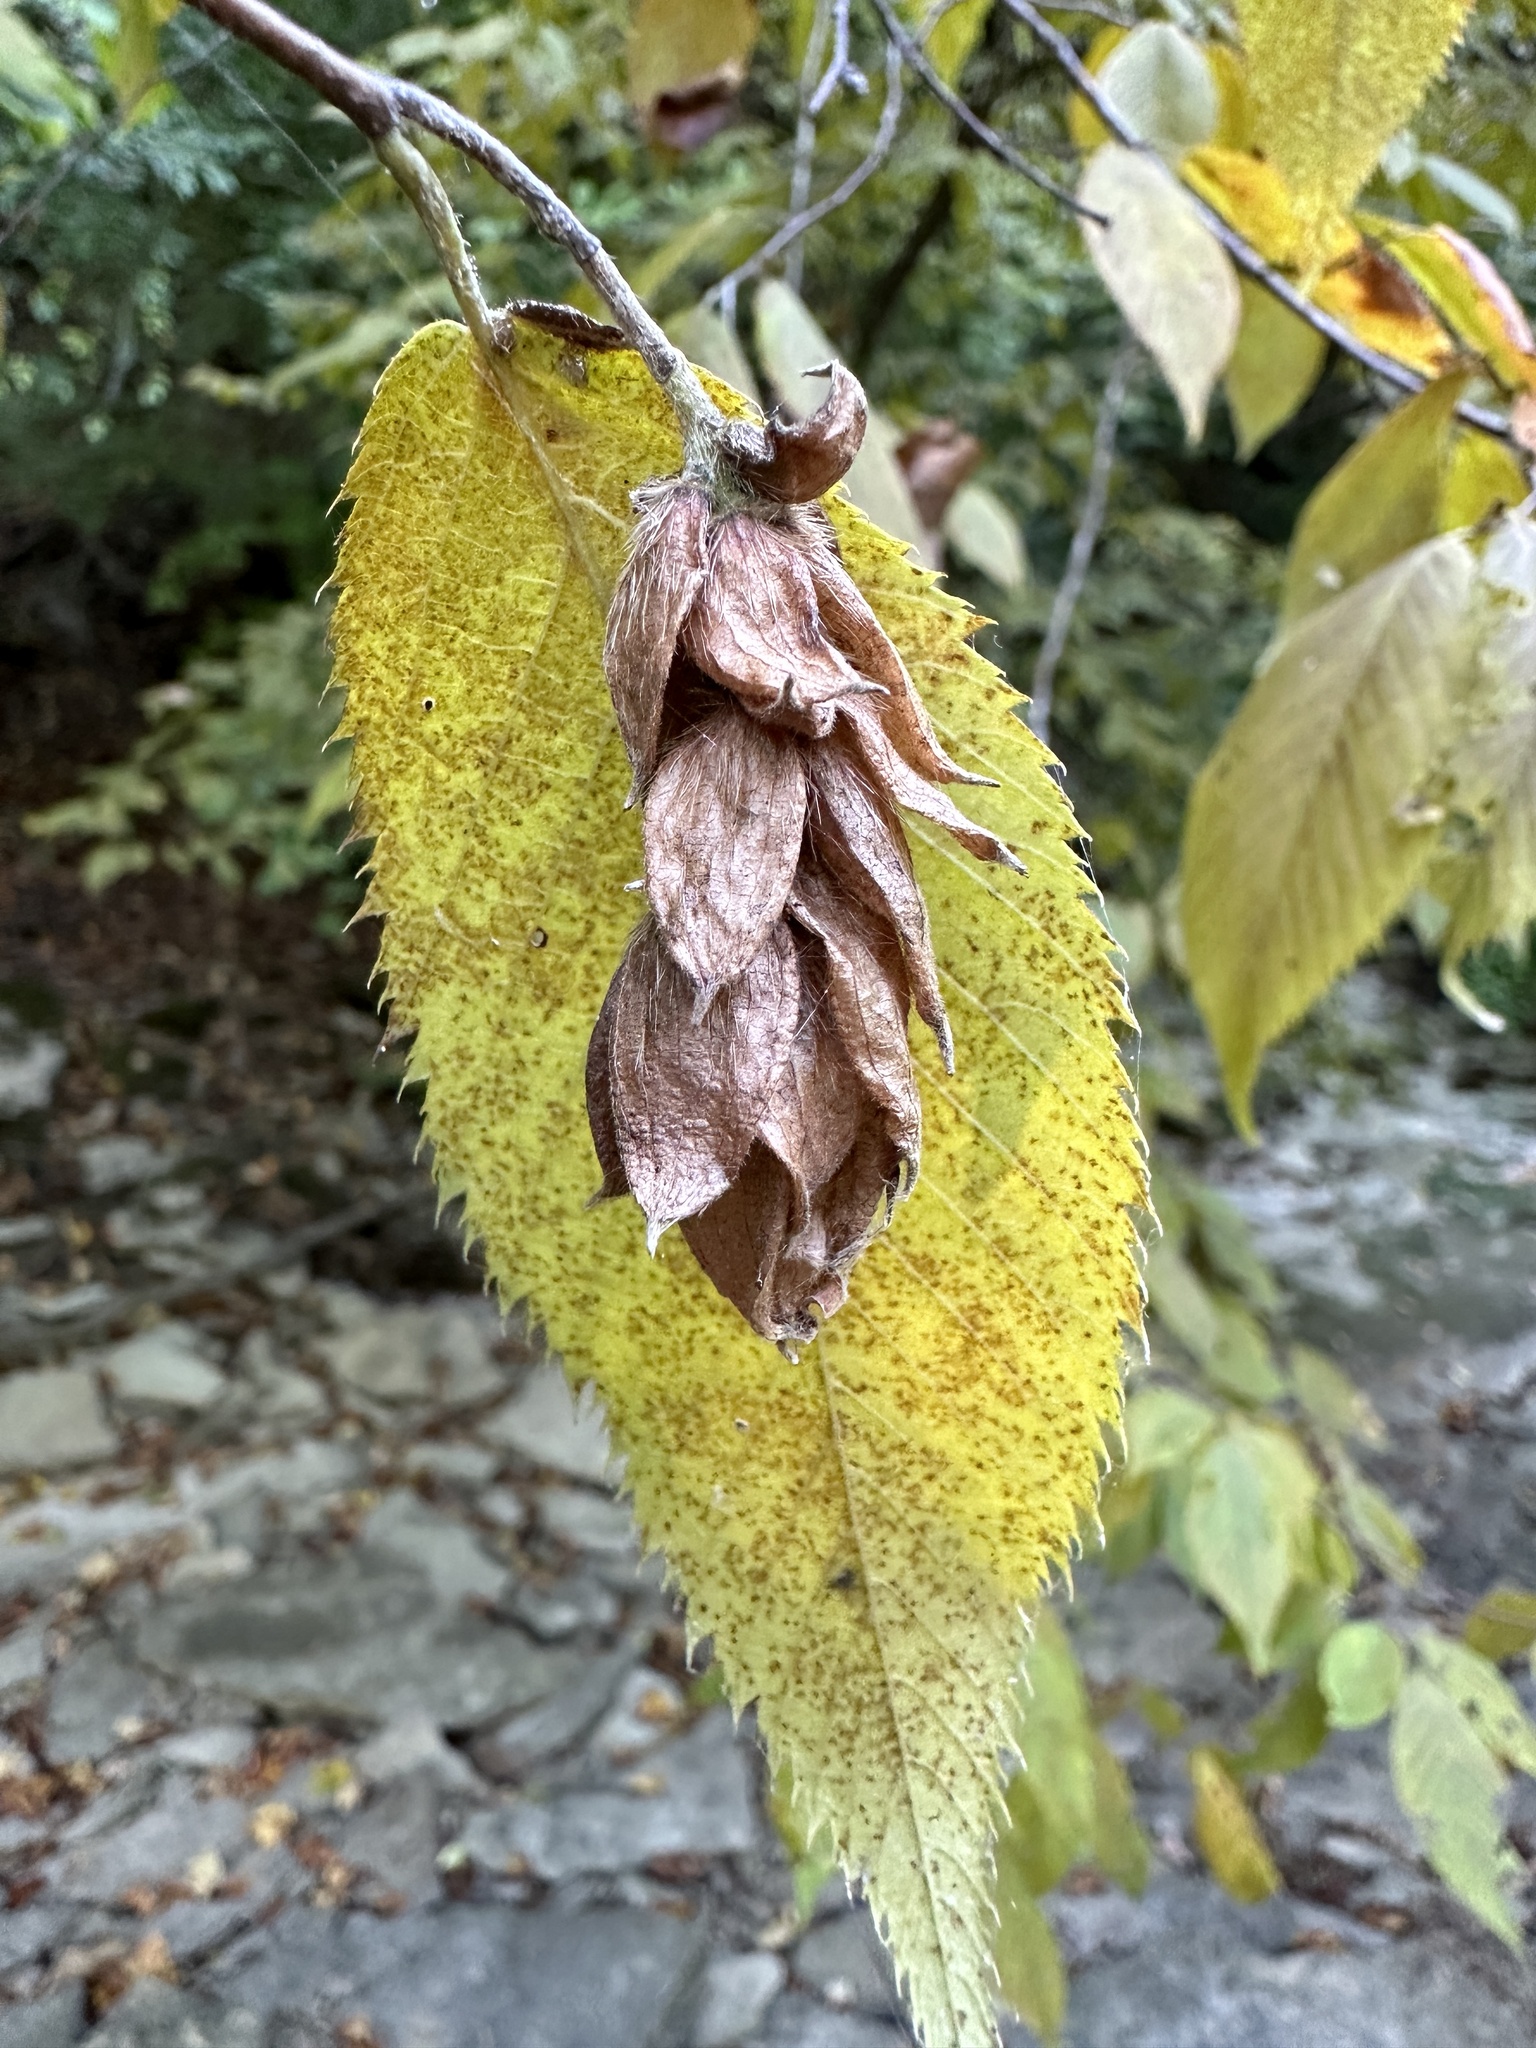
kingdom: Plantae
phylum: Tracheophyta
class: Magnoliopsida
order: Fagales
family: Betulaceae
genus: Ostrya
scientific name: Ostrya virginiana
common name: Ironwood
